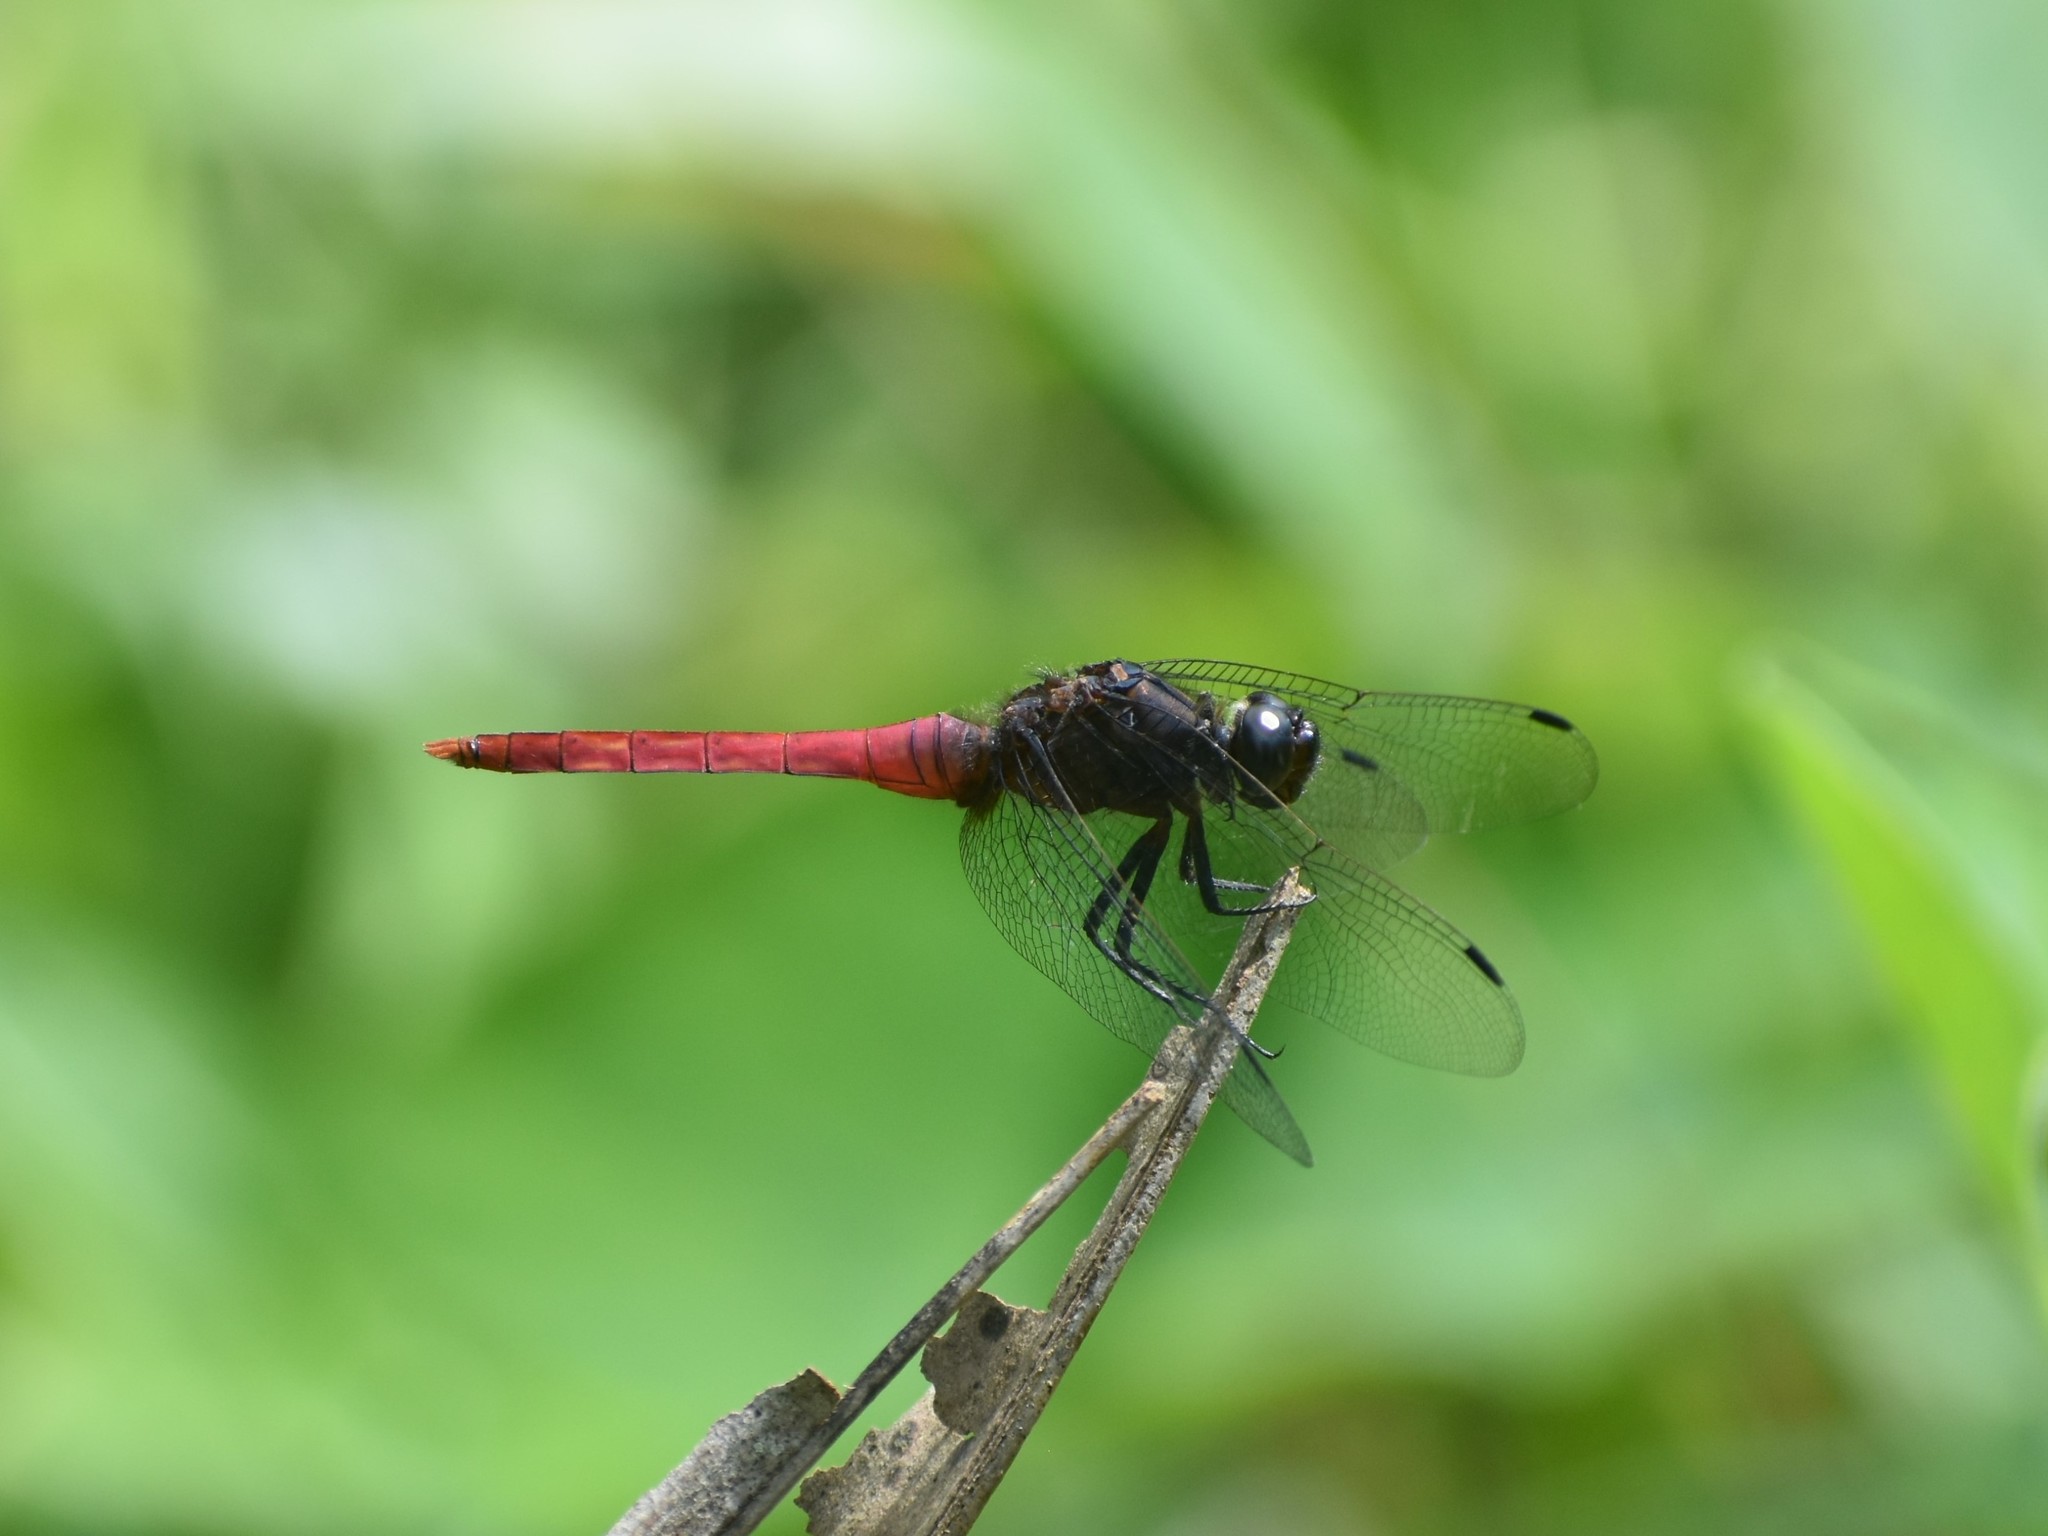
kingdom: Animalia
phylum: Arthropoda
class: Insecta
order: Odonata
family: Libellulidae
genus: Orthetrum
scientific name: Orthetrum pruinosum
